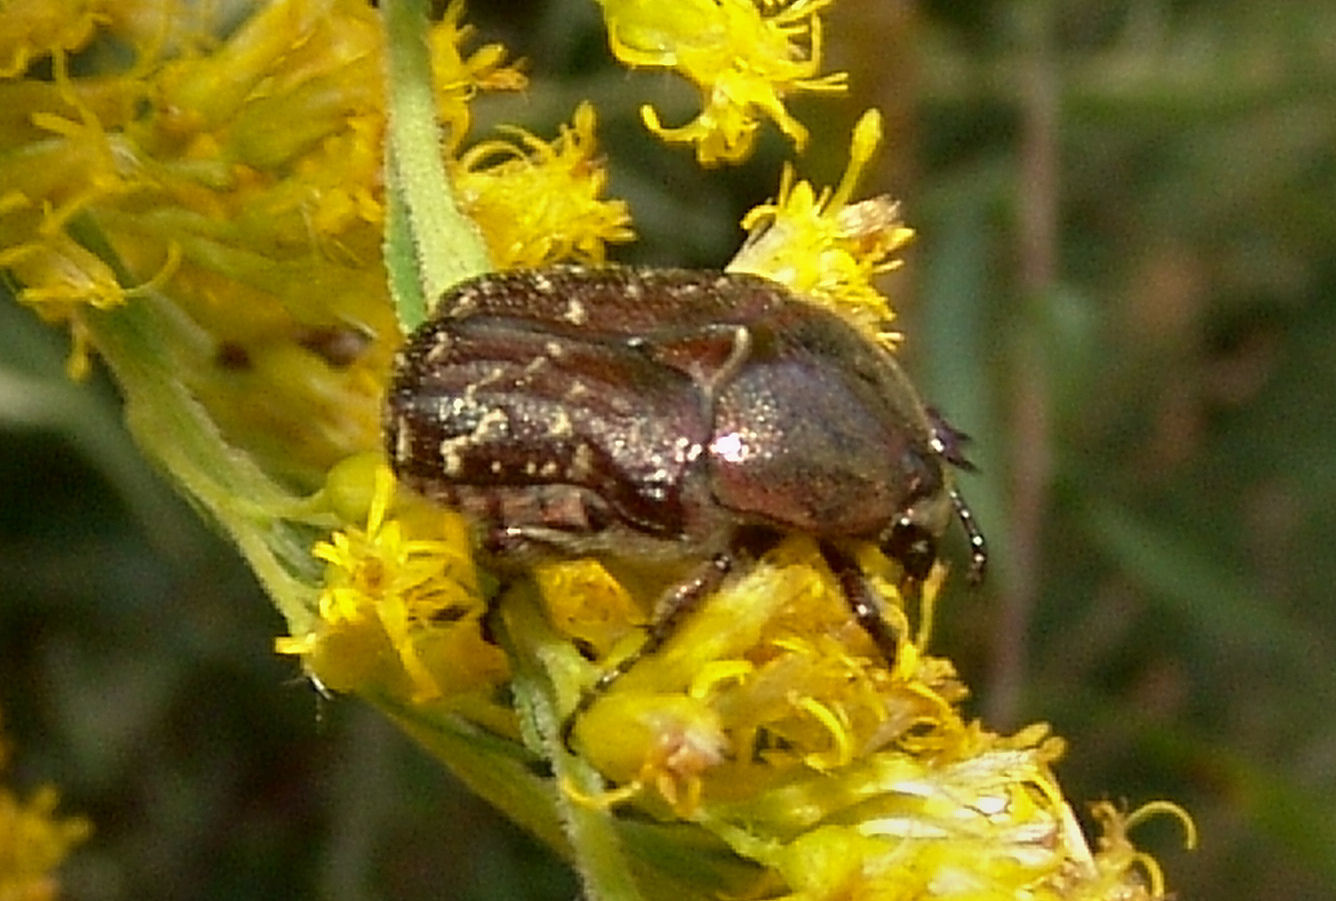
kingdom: Animalia
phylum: Arthropoda
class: Insecta
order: Coleoptera
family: Scarabaeidae
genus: Euphoria
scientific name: Euphoria sepulcralis
